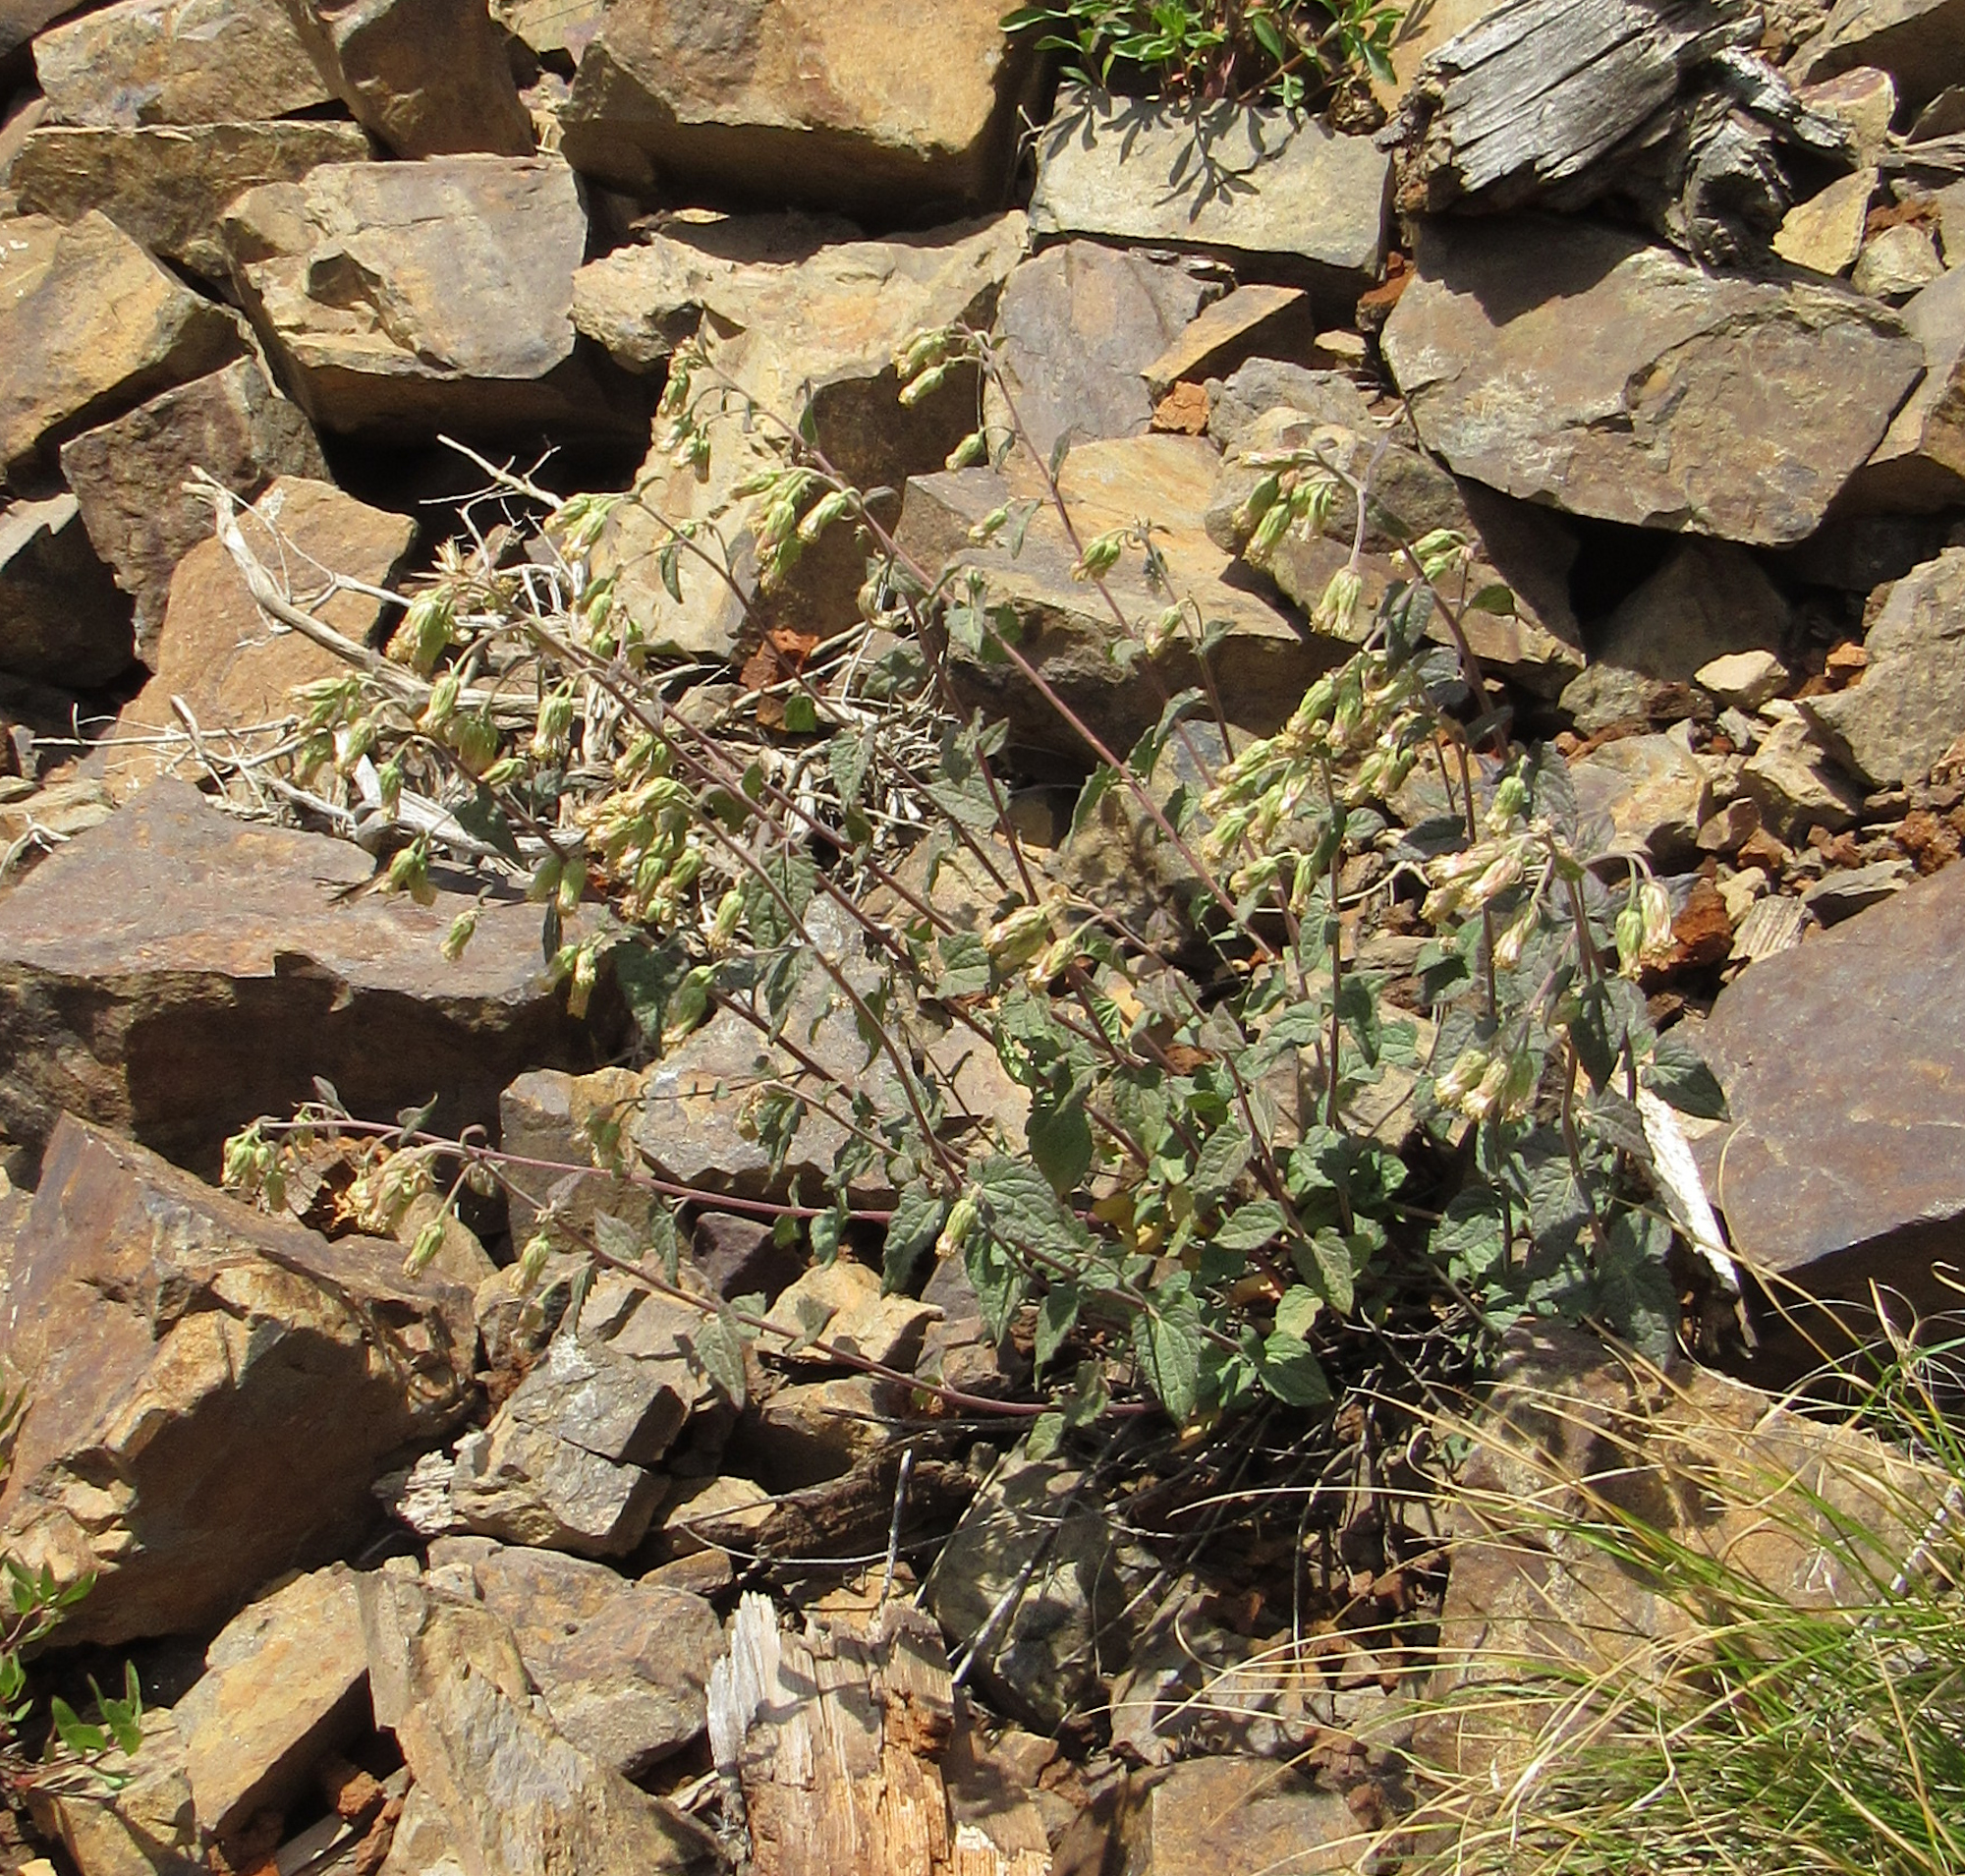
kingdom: Plantae
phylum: Tracheophyta
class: Magnoliopsida
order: Asterales
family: Asteraceae
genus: Brickellia
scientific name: Brickellia grandiflora
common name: Large-flowered brickellia
